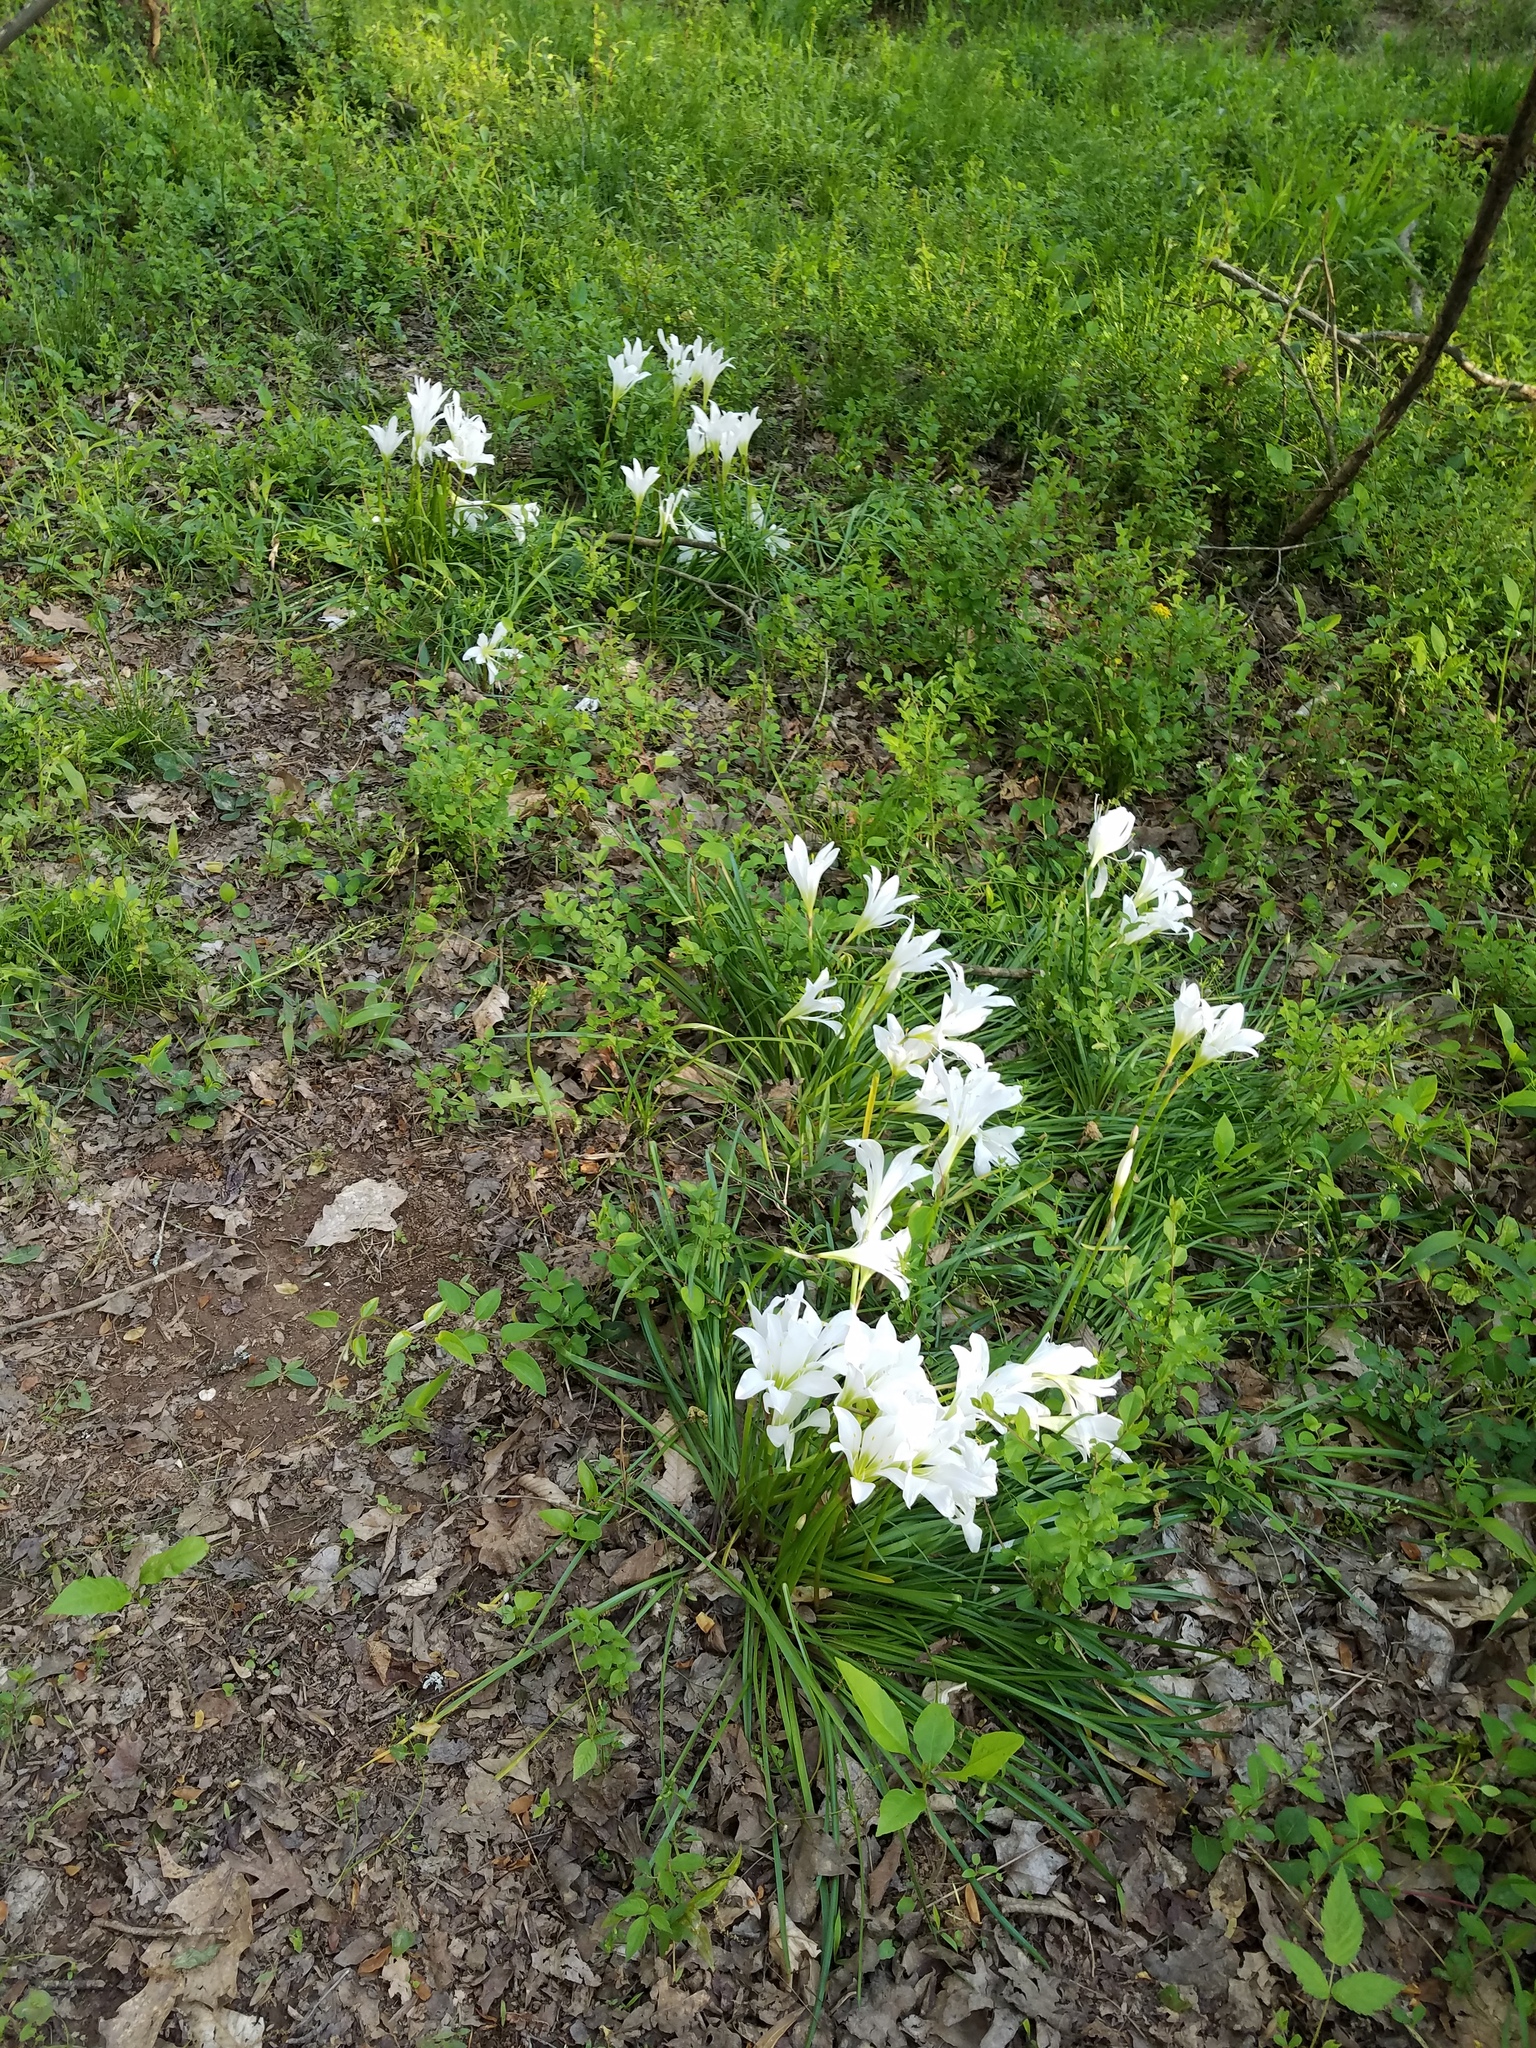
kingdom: Plantae
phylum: Tracheophyta
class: Liliopsida
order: Asparagales
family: Amaryllidaceae
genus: Zephyranthes
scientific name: Zephyranthes atamasco
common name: Atamasco lily
